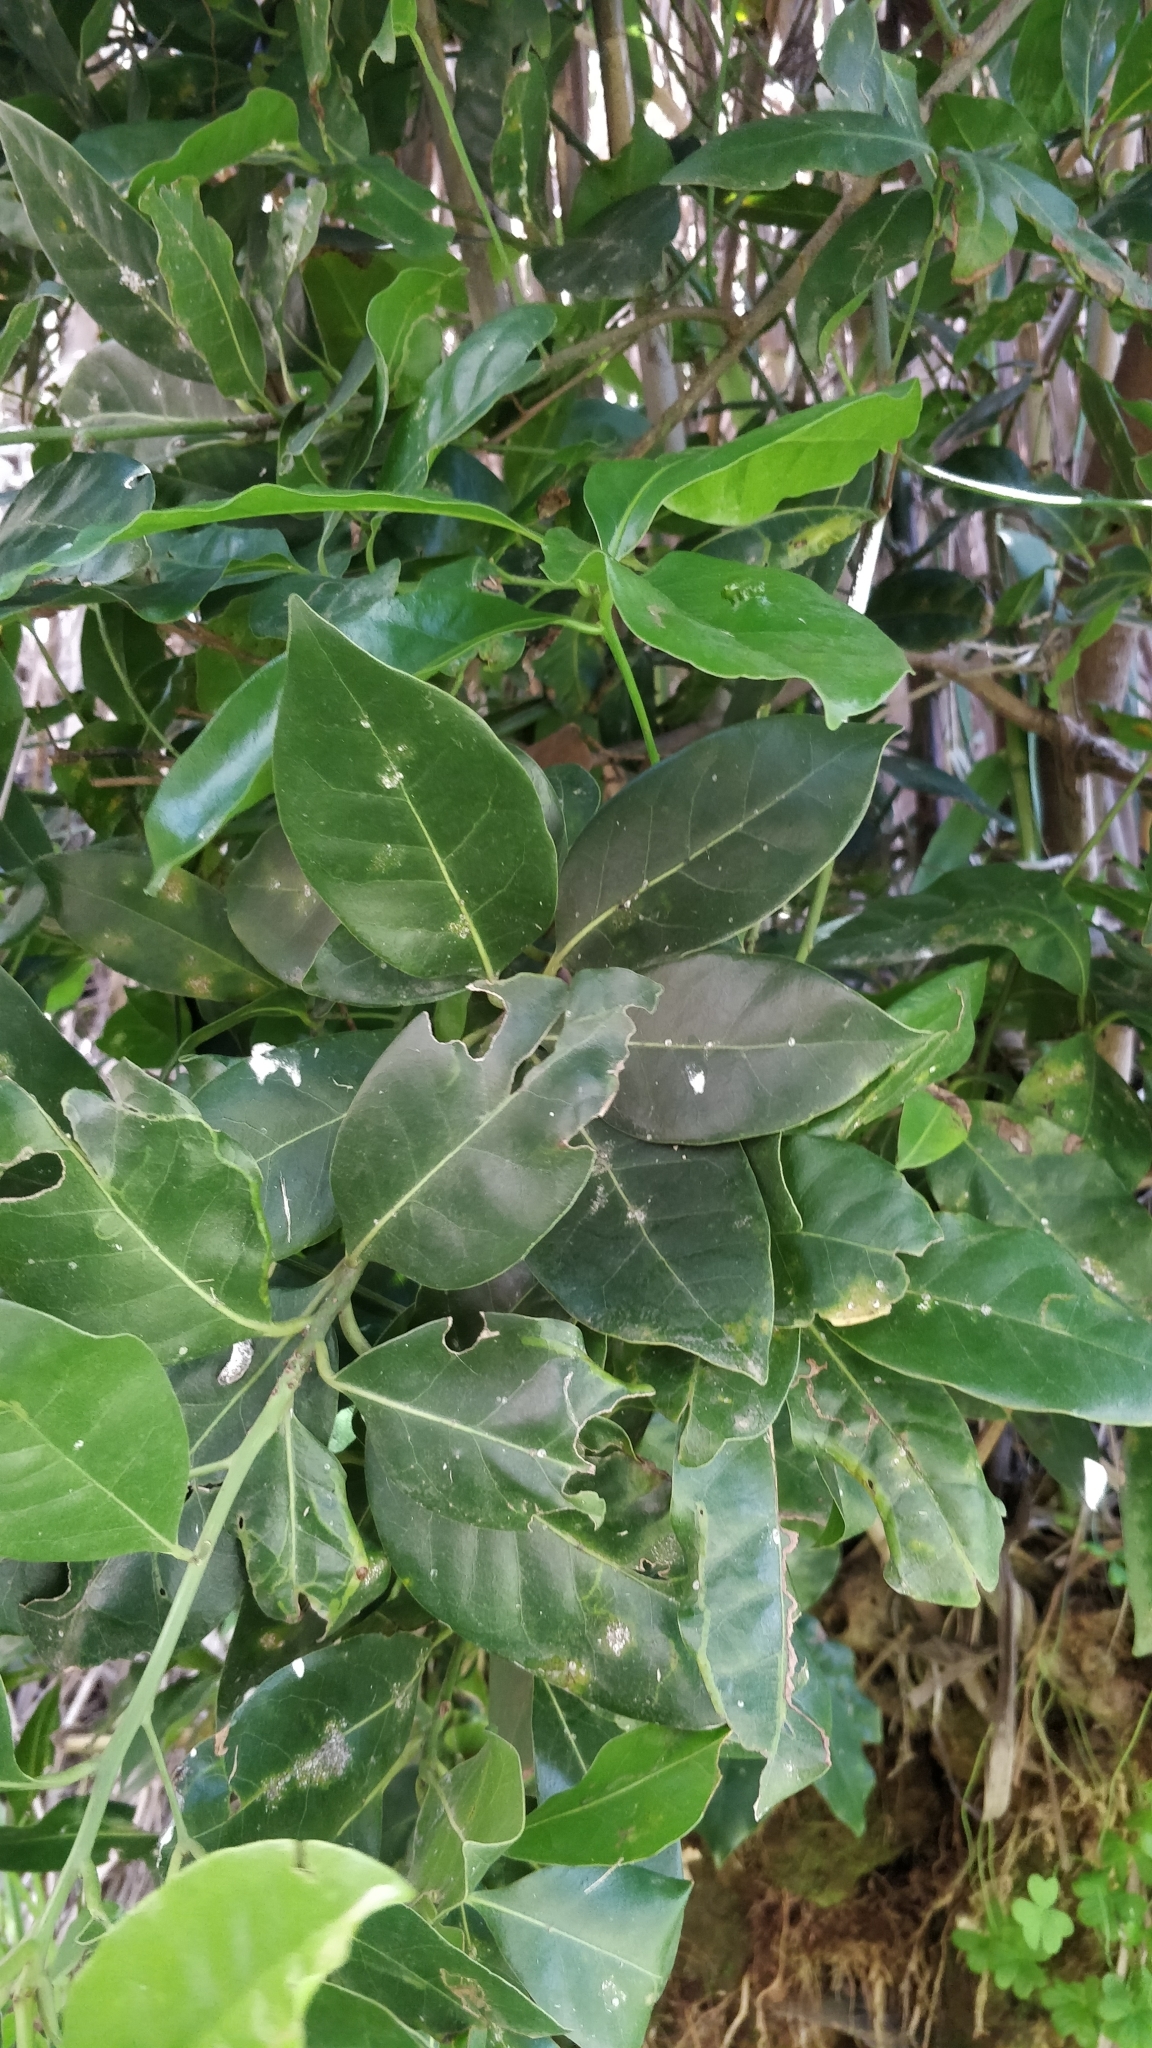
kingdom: Plantae
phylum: Tracheophyta
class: Magnoliopsida
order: Laurales
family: Lauraceae
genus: Apollonias
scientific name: Apollonias barbujana
